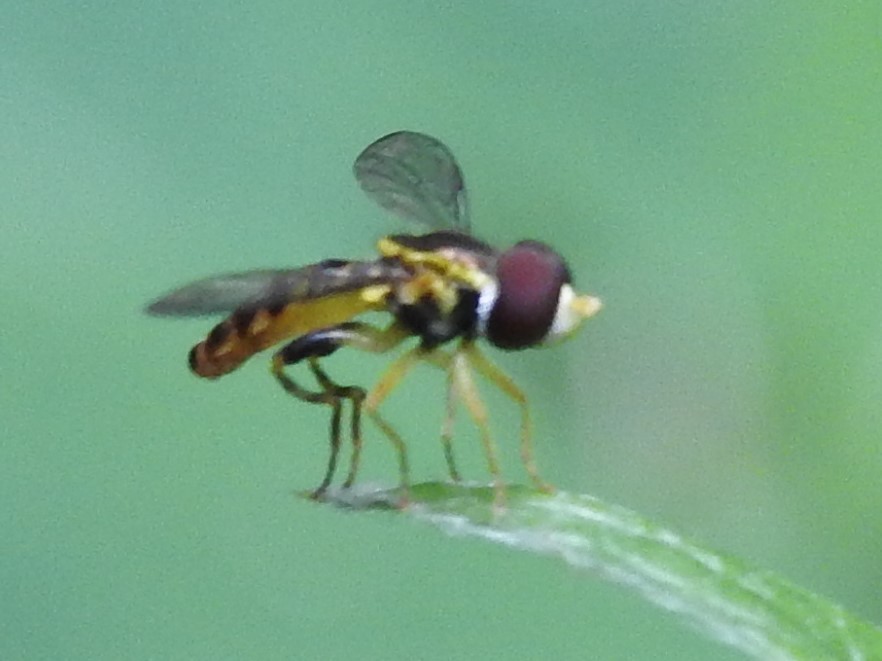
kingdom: Animalia
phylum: Arthropoda
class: Insecta
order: Diptera
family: Syrphidae
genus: Toxomerus
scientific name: Toxomerus geminatus
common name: Eastern calligrapher
